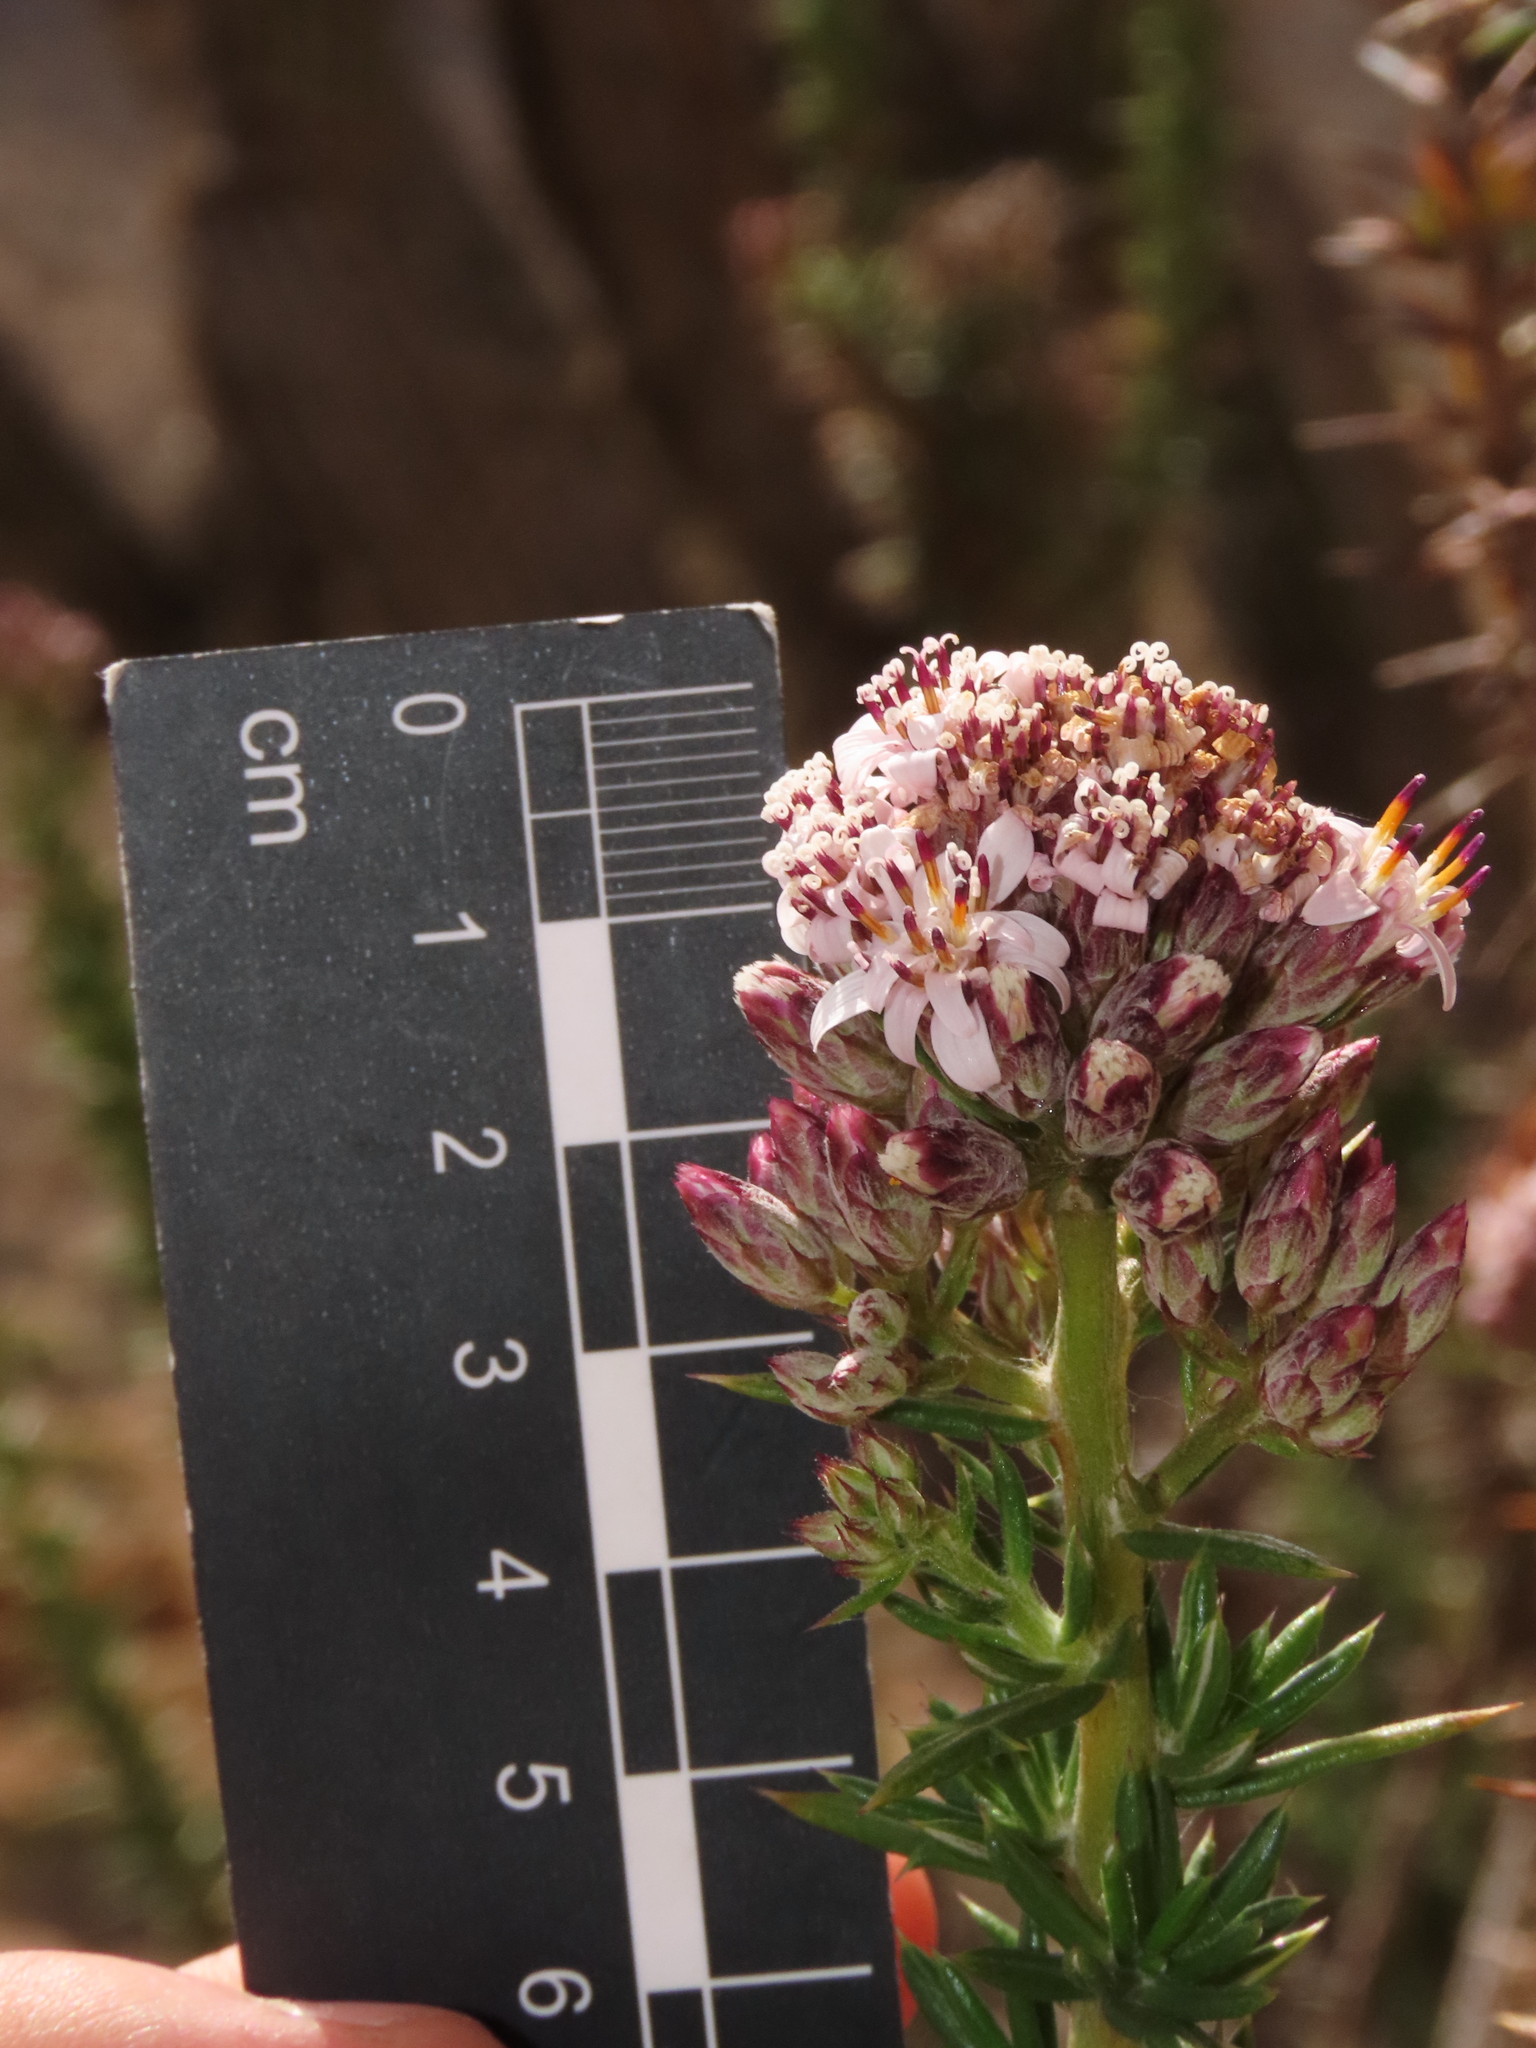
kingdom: Plantae
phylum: Tracheophyta
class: Magnoliopsida
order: Asterales
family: Asteraceae
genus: Oxyphyllum
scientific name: Oxyphyllum ulicinum
